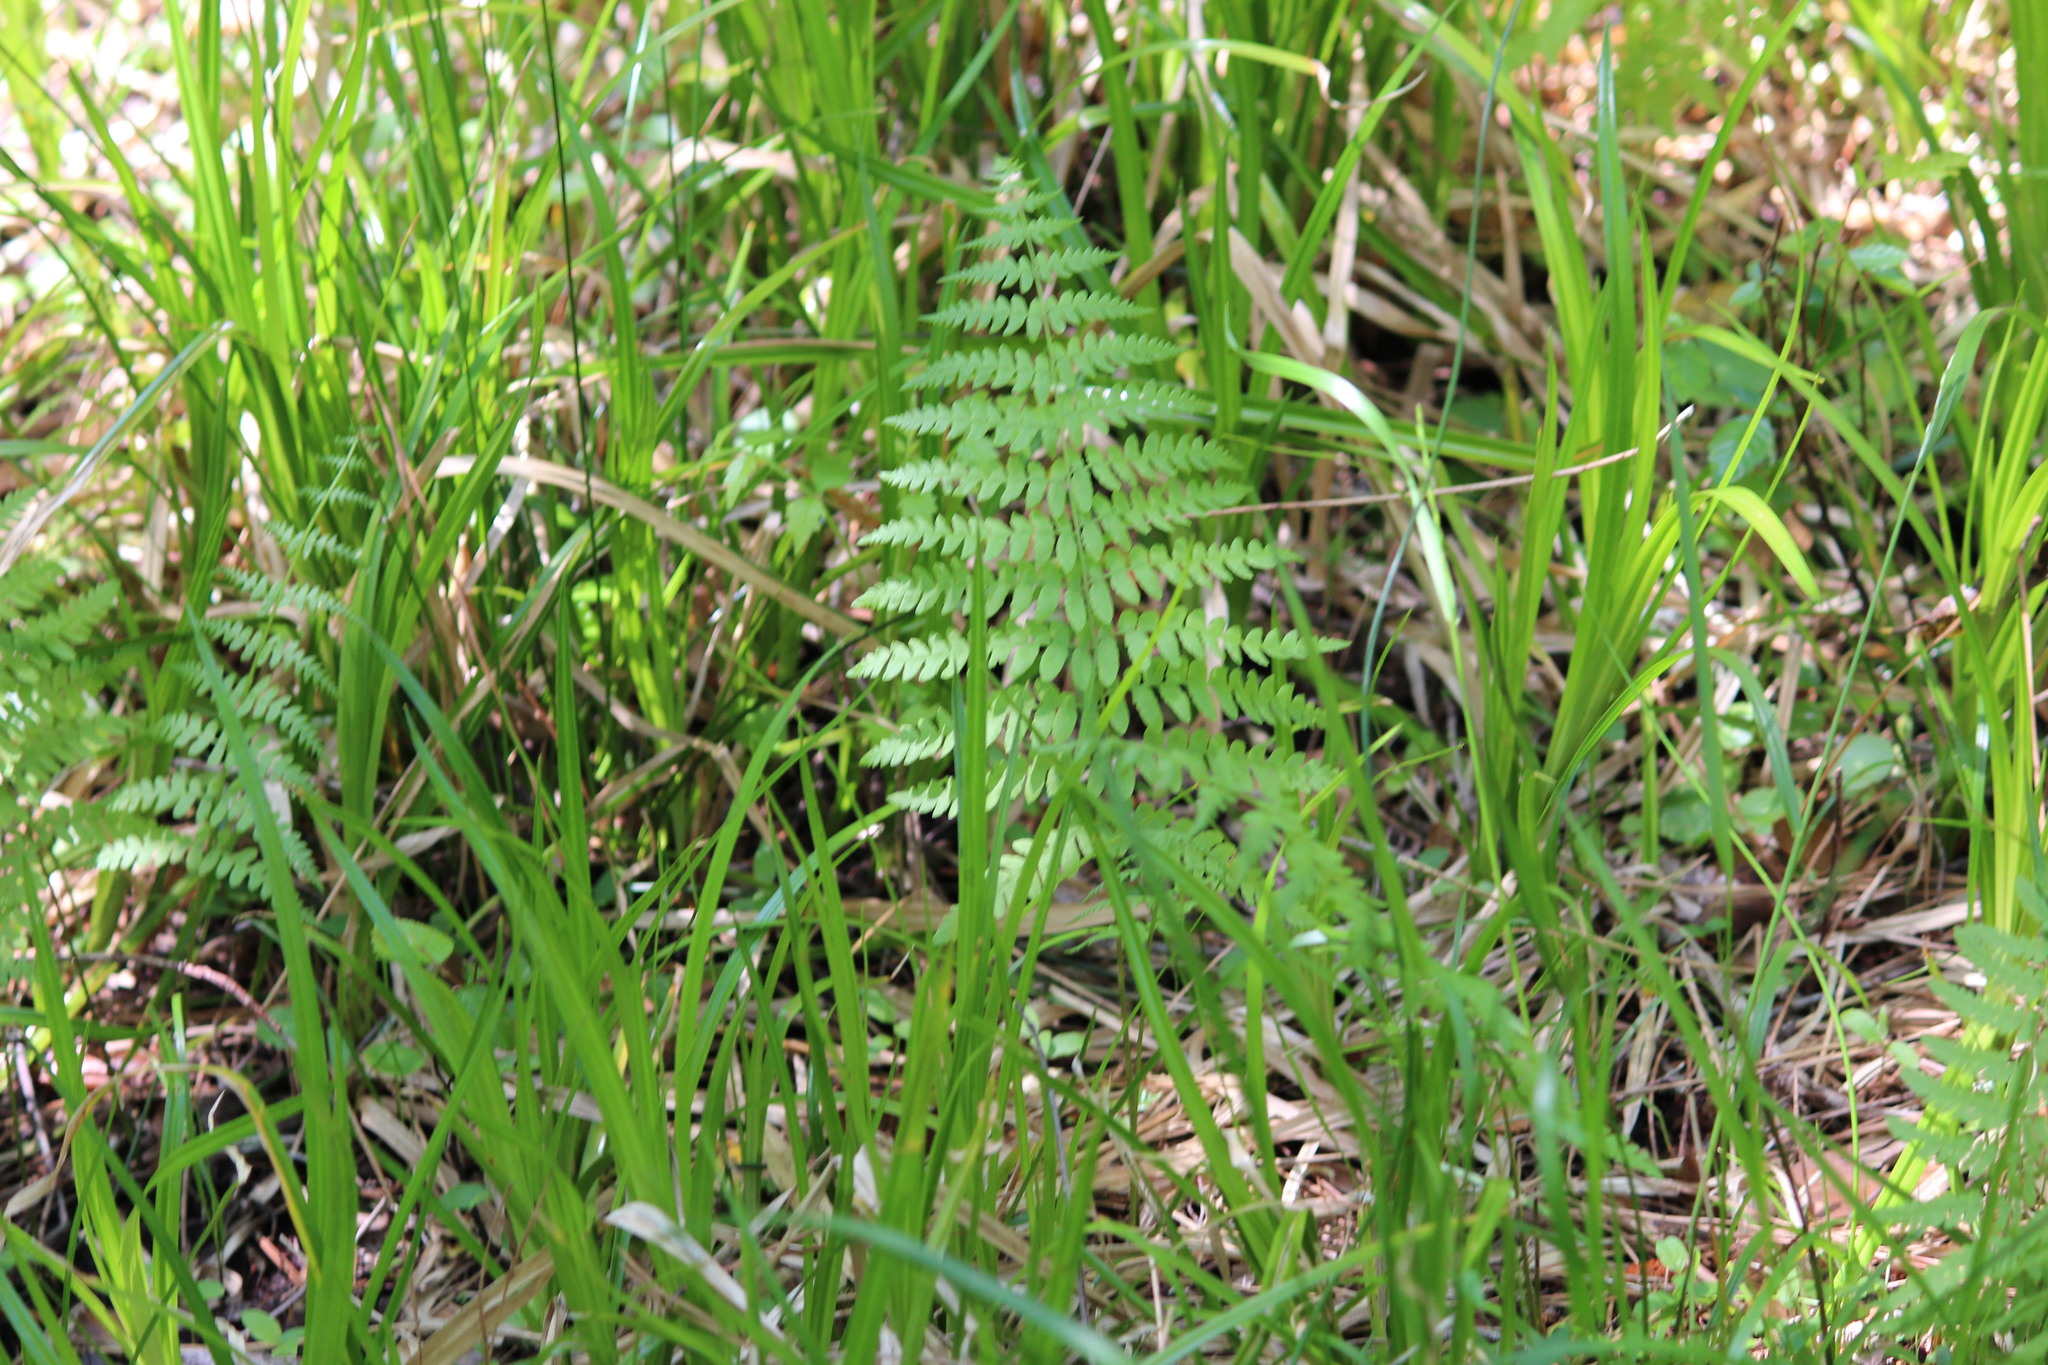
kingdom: Plantae
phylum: Tracheophyta
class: Polypodiopsida
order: Polypodiales
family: Thelypteridaceae
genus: Thelypteris
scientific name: Thelypteris palustris
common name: Marsh fern
